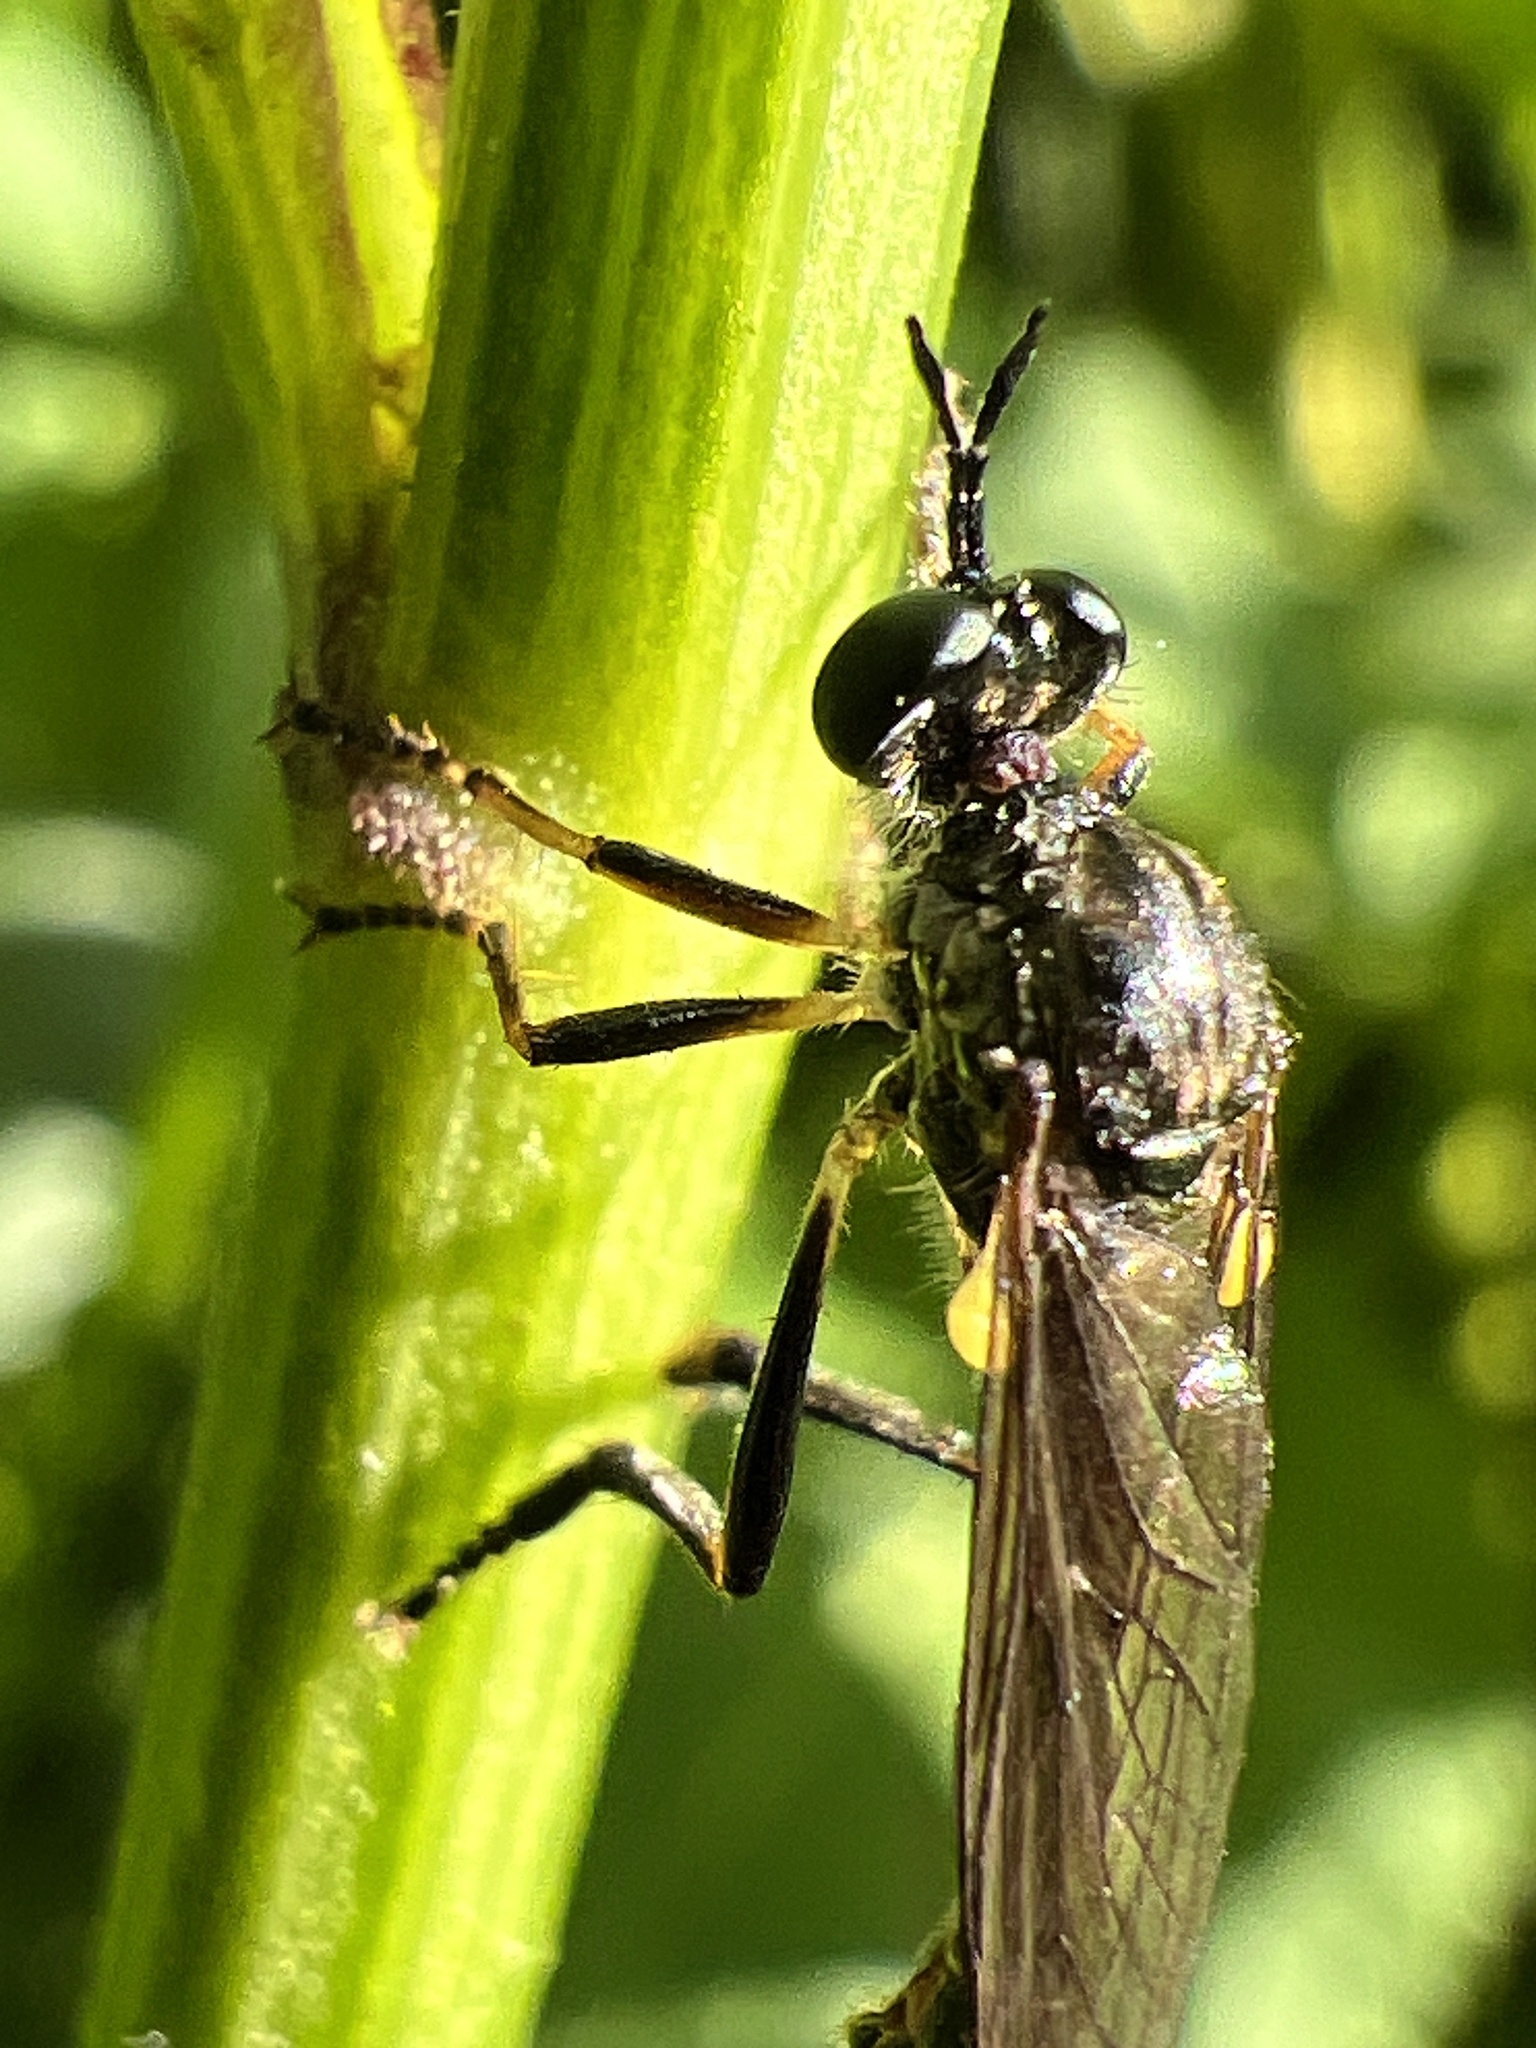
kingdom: Animalia
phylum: Arthropoda
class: Insecta
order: Diptera
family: Asilidae
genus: Dioctria
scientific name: Dioctria hyalipennis
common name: Stripe-legged robberfly
